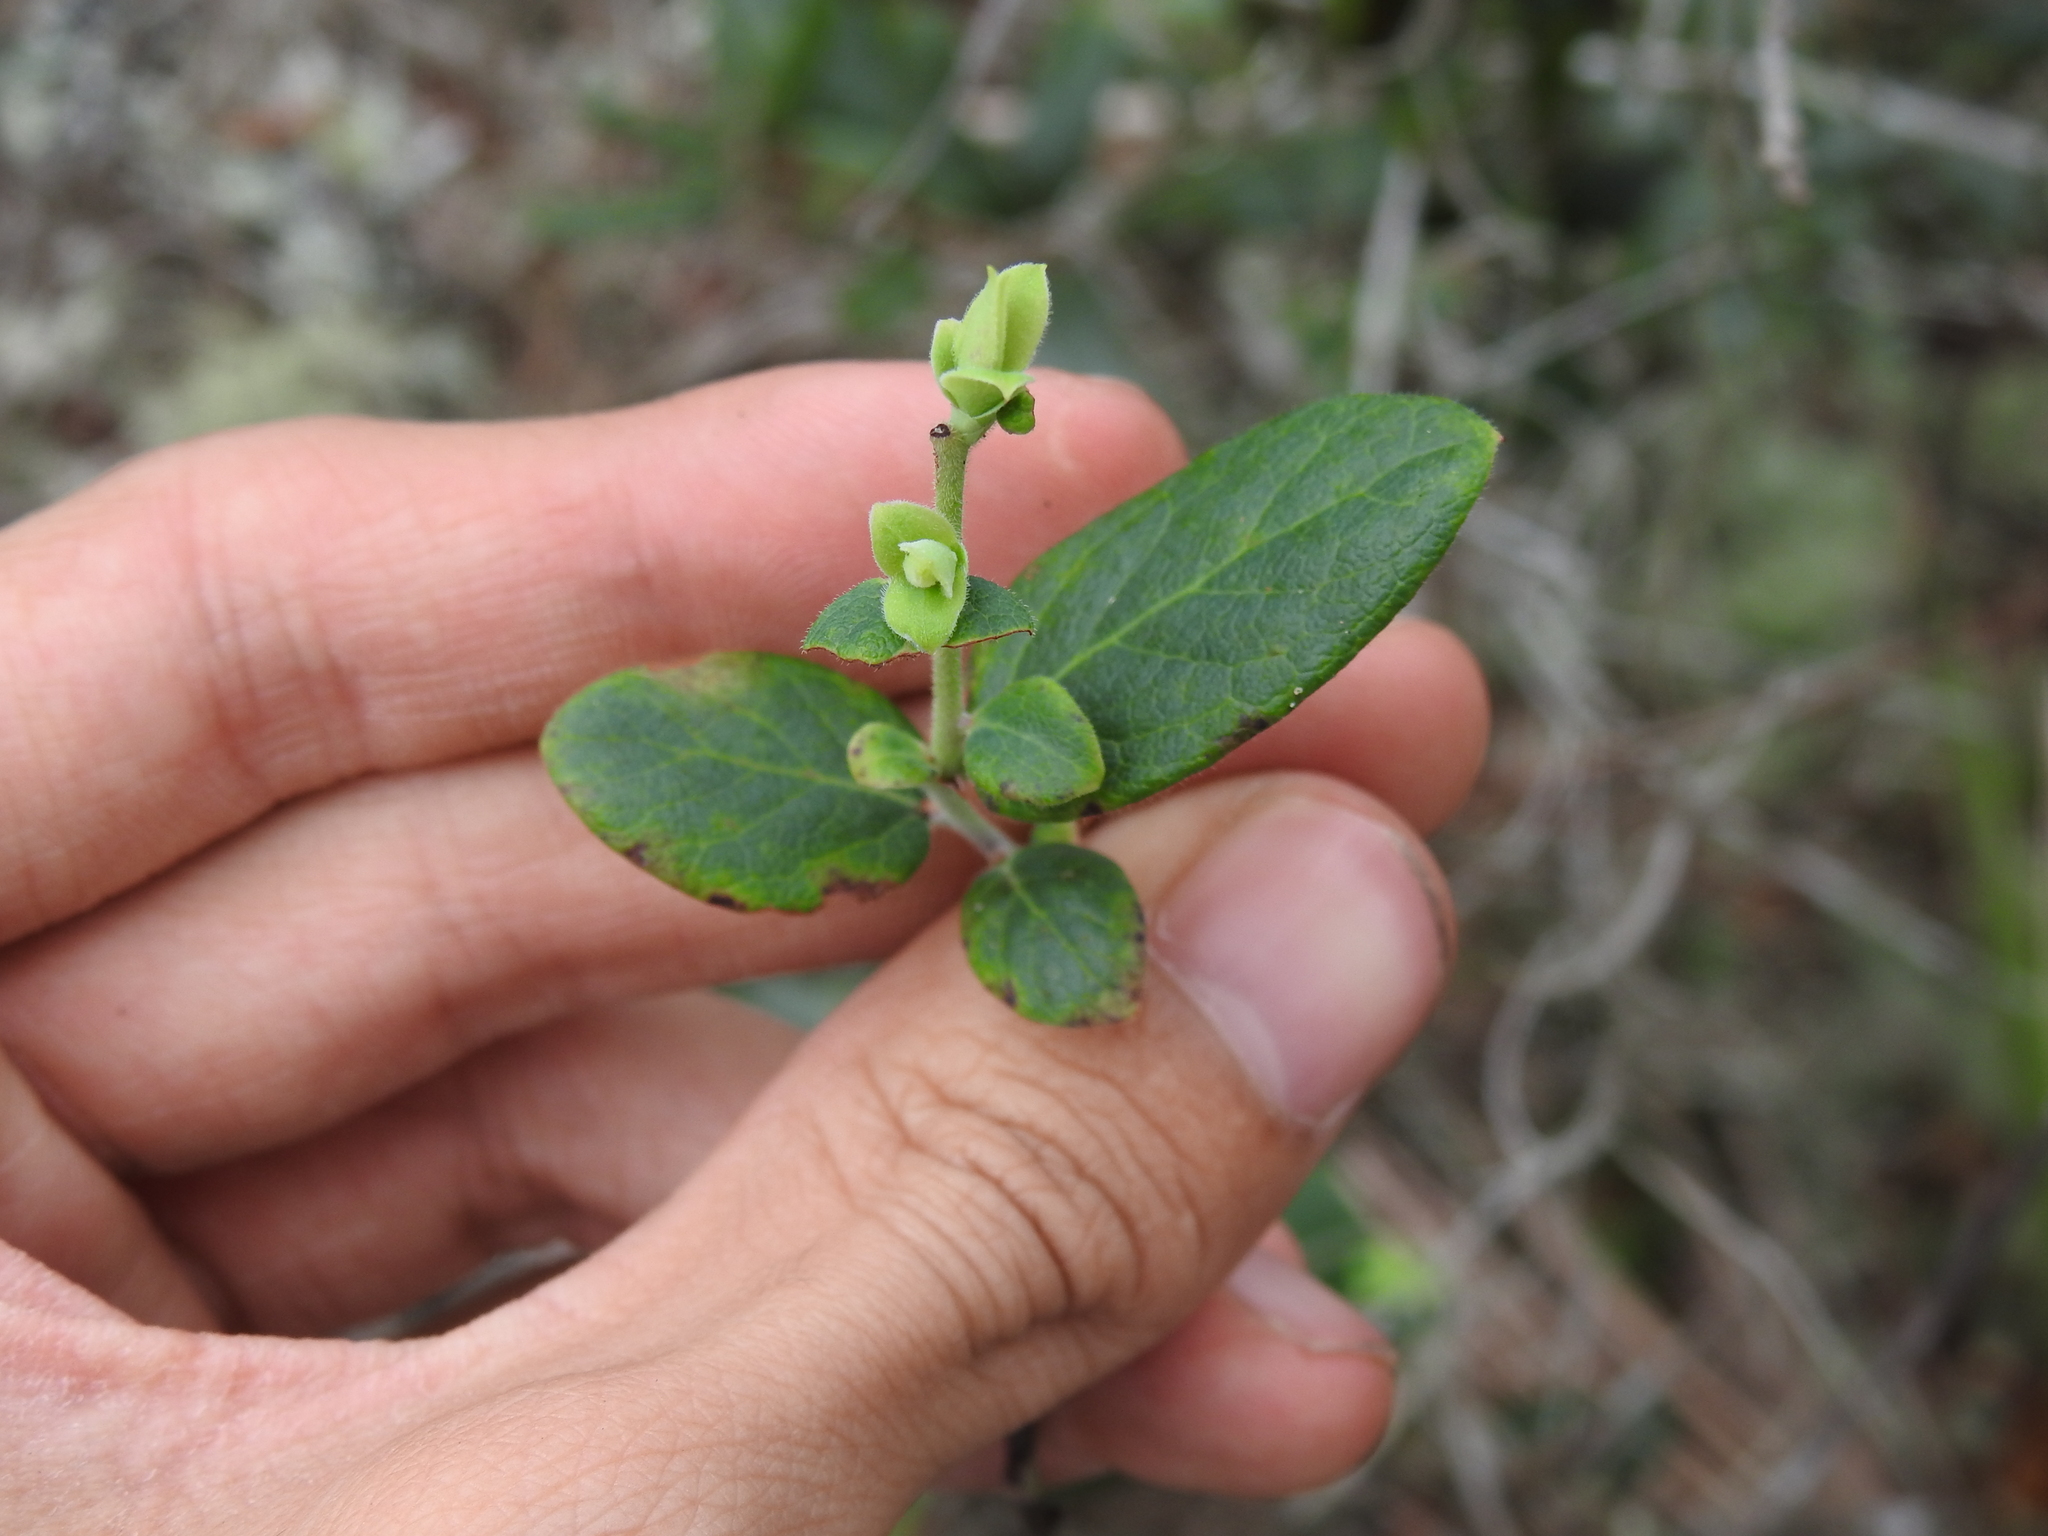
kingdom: Plantae
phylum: Tracheophyta
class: Magnoliopsida
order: Ericales
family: Ericaceae
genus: Vaccinium
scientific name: Vaccinium stamineum
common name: Deerberry
